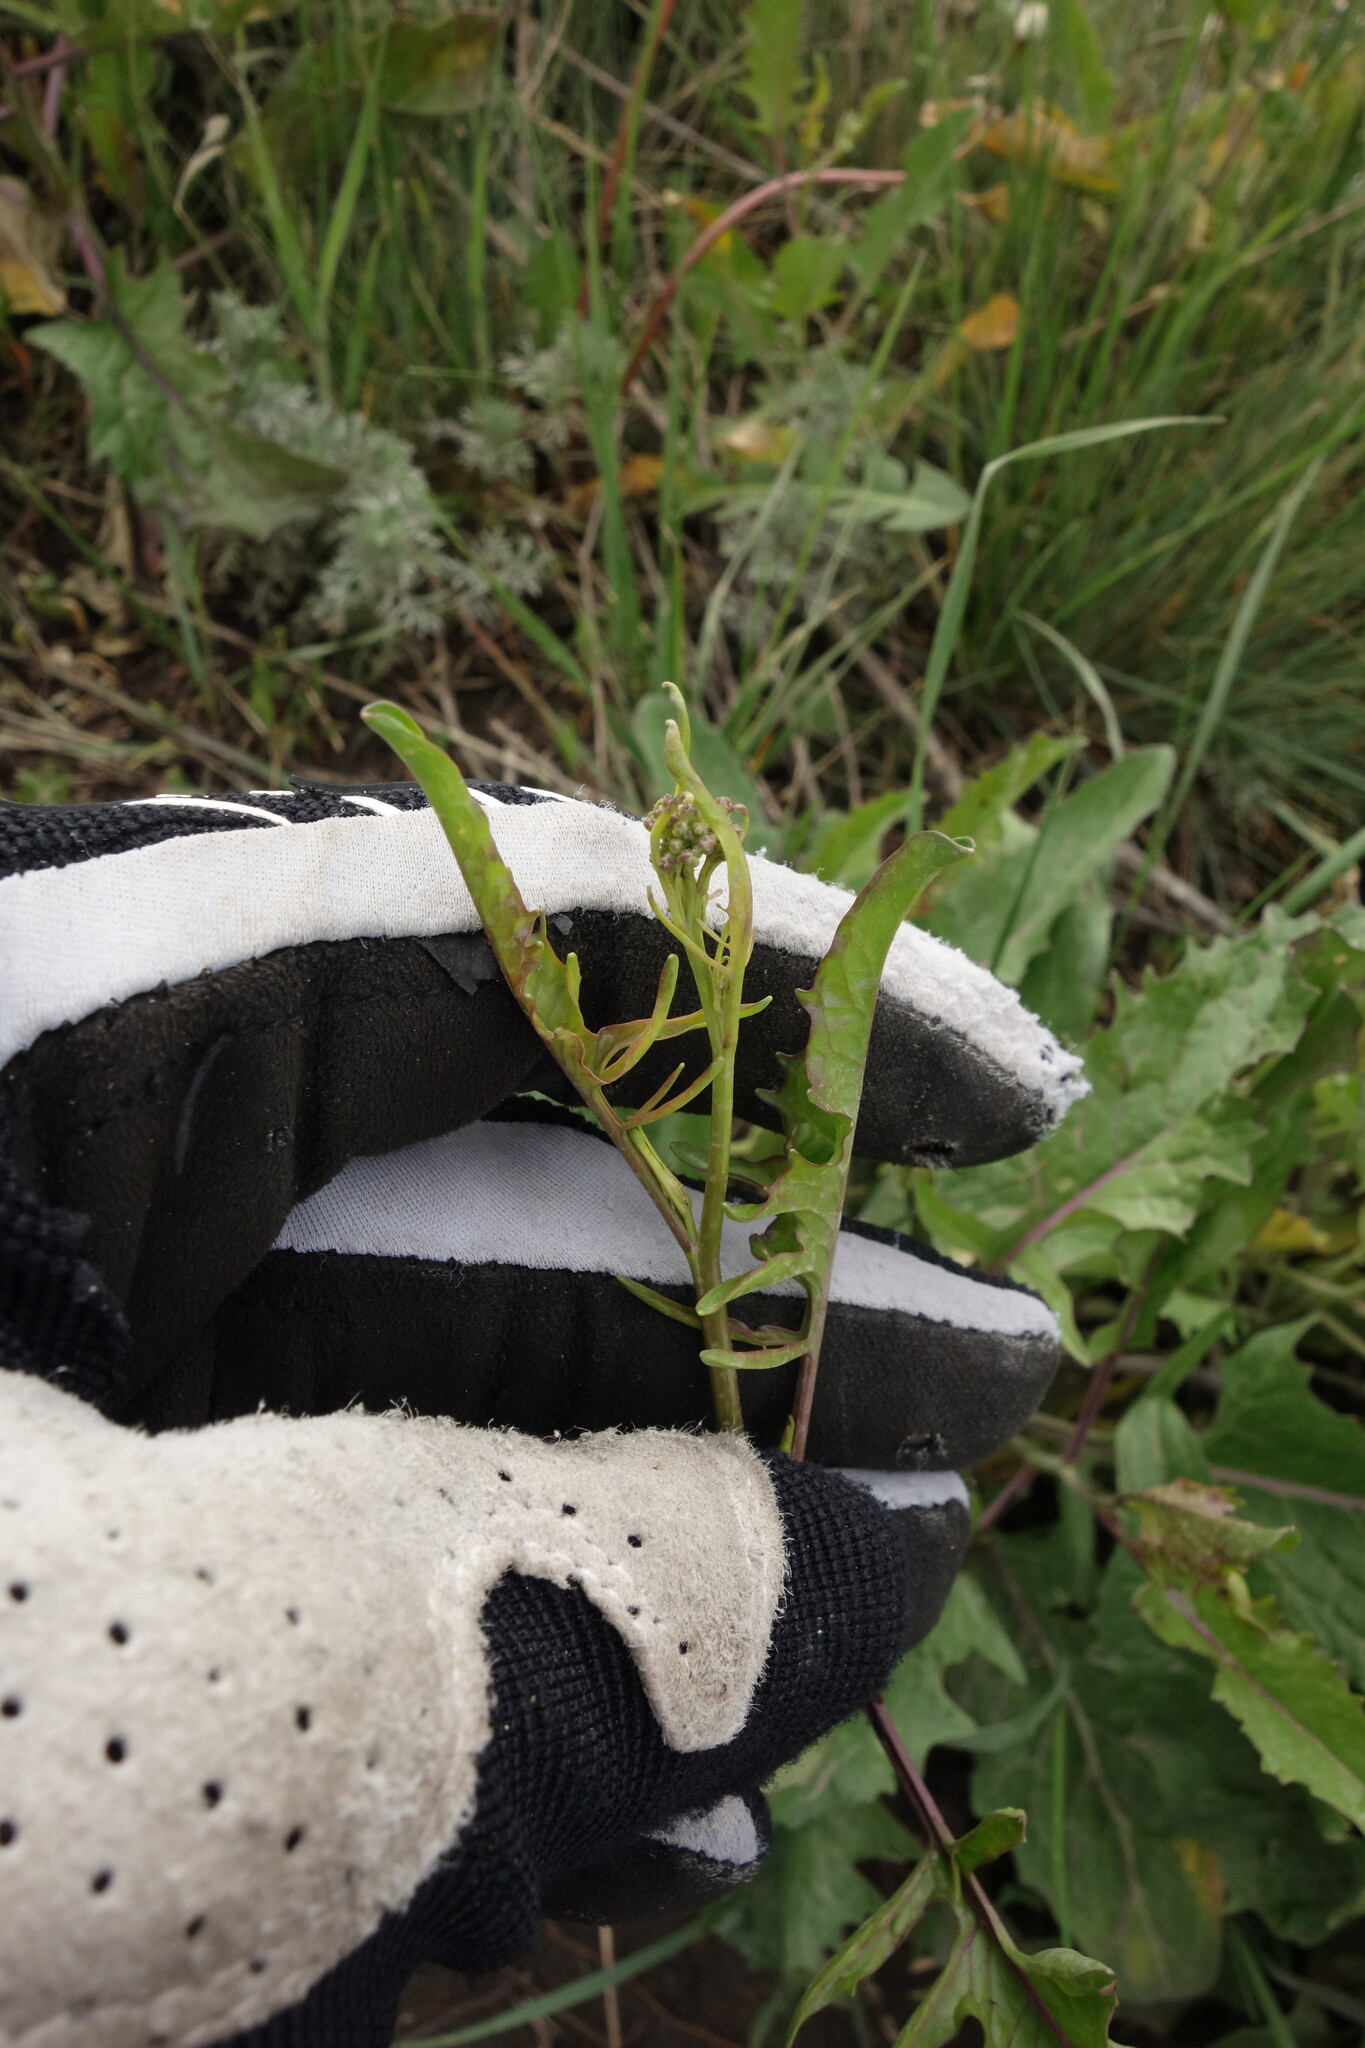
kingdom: Plantae
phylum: Tracheophyta
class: Magnoliopsida
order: Brassicales
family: Brassicaceae
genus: Sisymbrium
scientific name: Sisymbrium volgense
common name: Russian mustard
